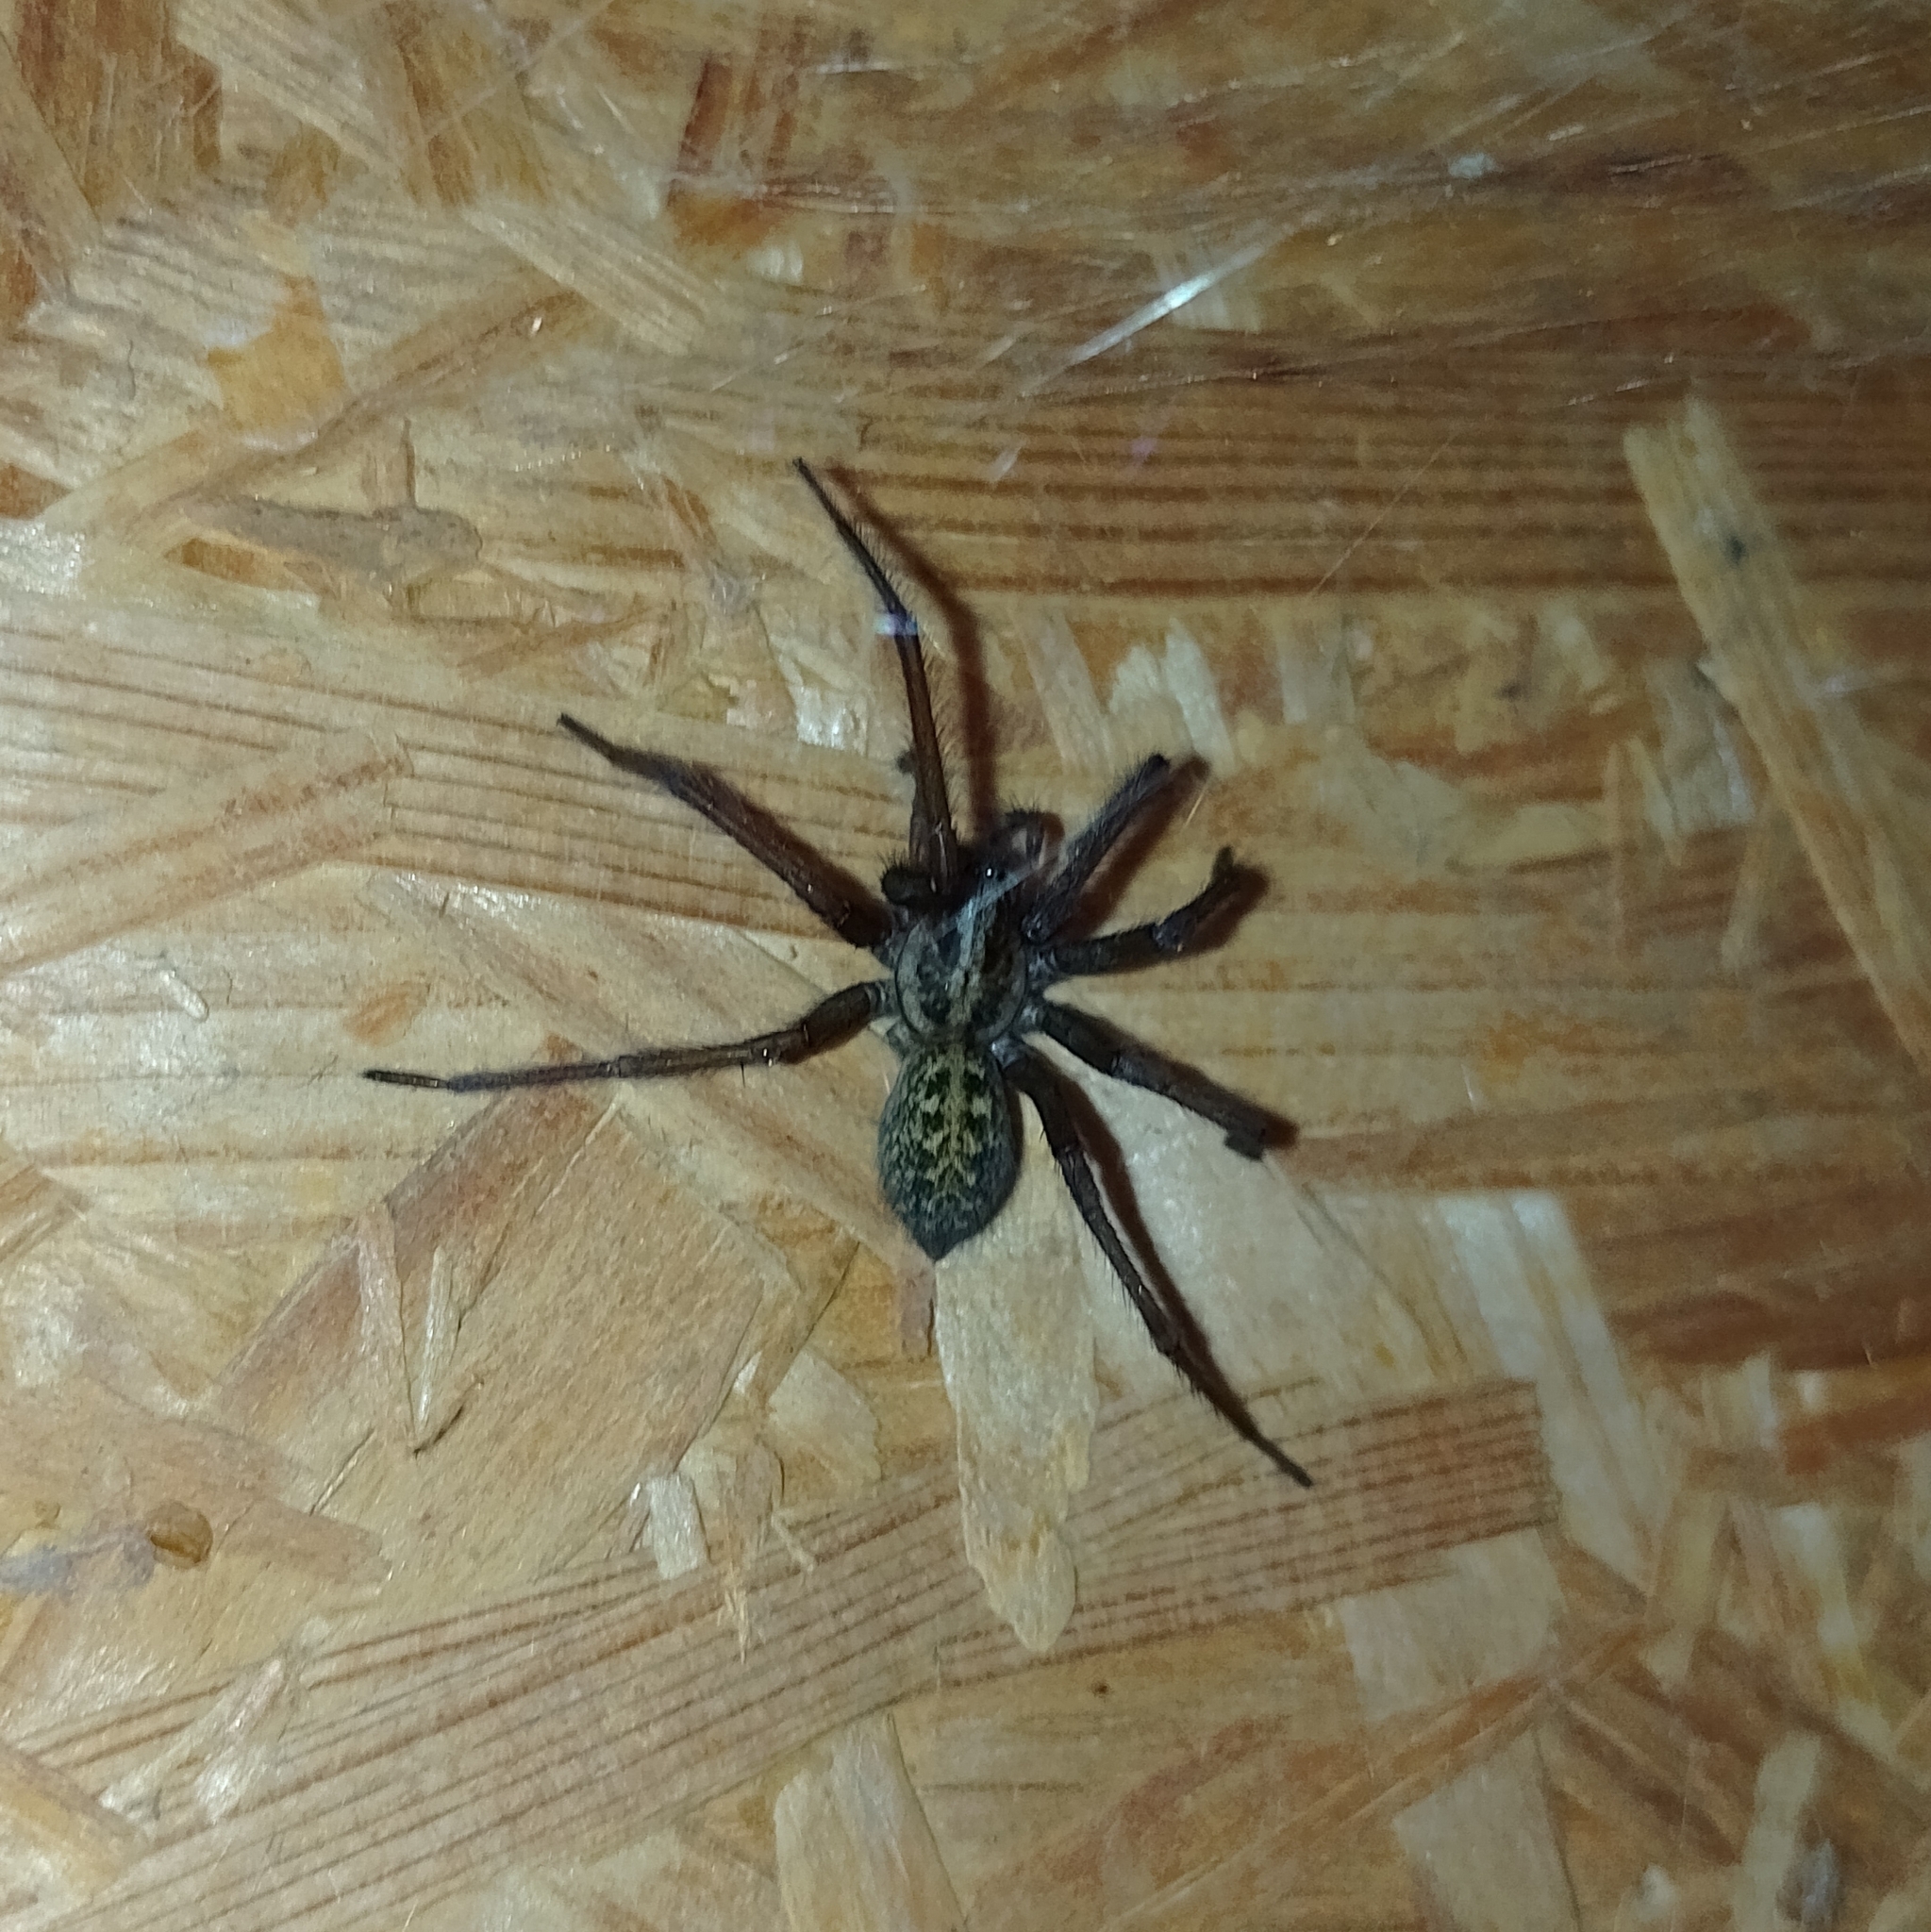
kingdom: Animalia
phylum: Arthropoda
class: Arachnida
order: Araneae
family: Agelenidae
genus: Eratigena
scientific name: Eratigena duellica
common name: Giant house spider
